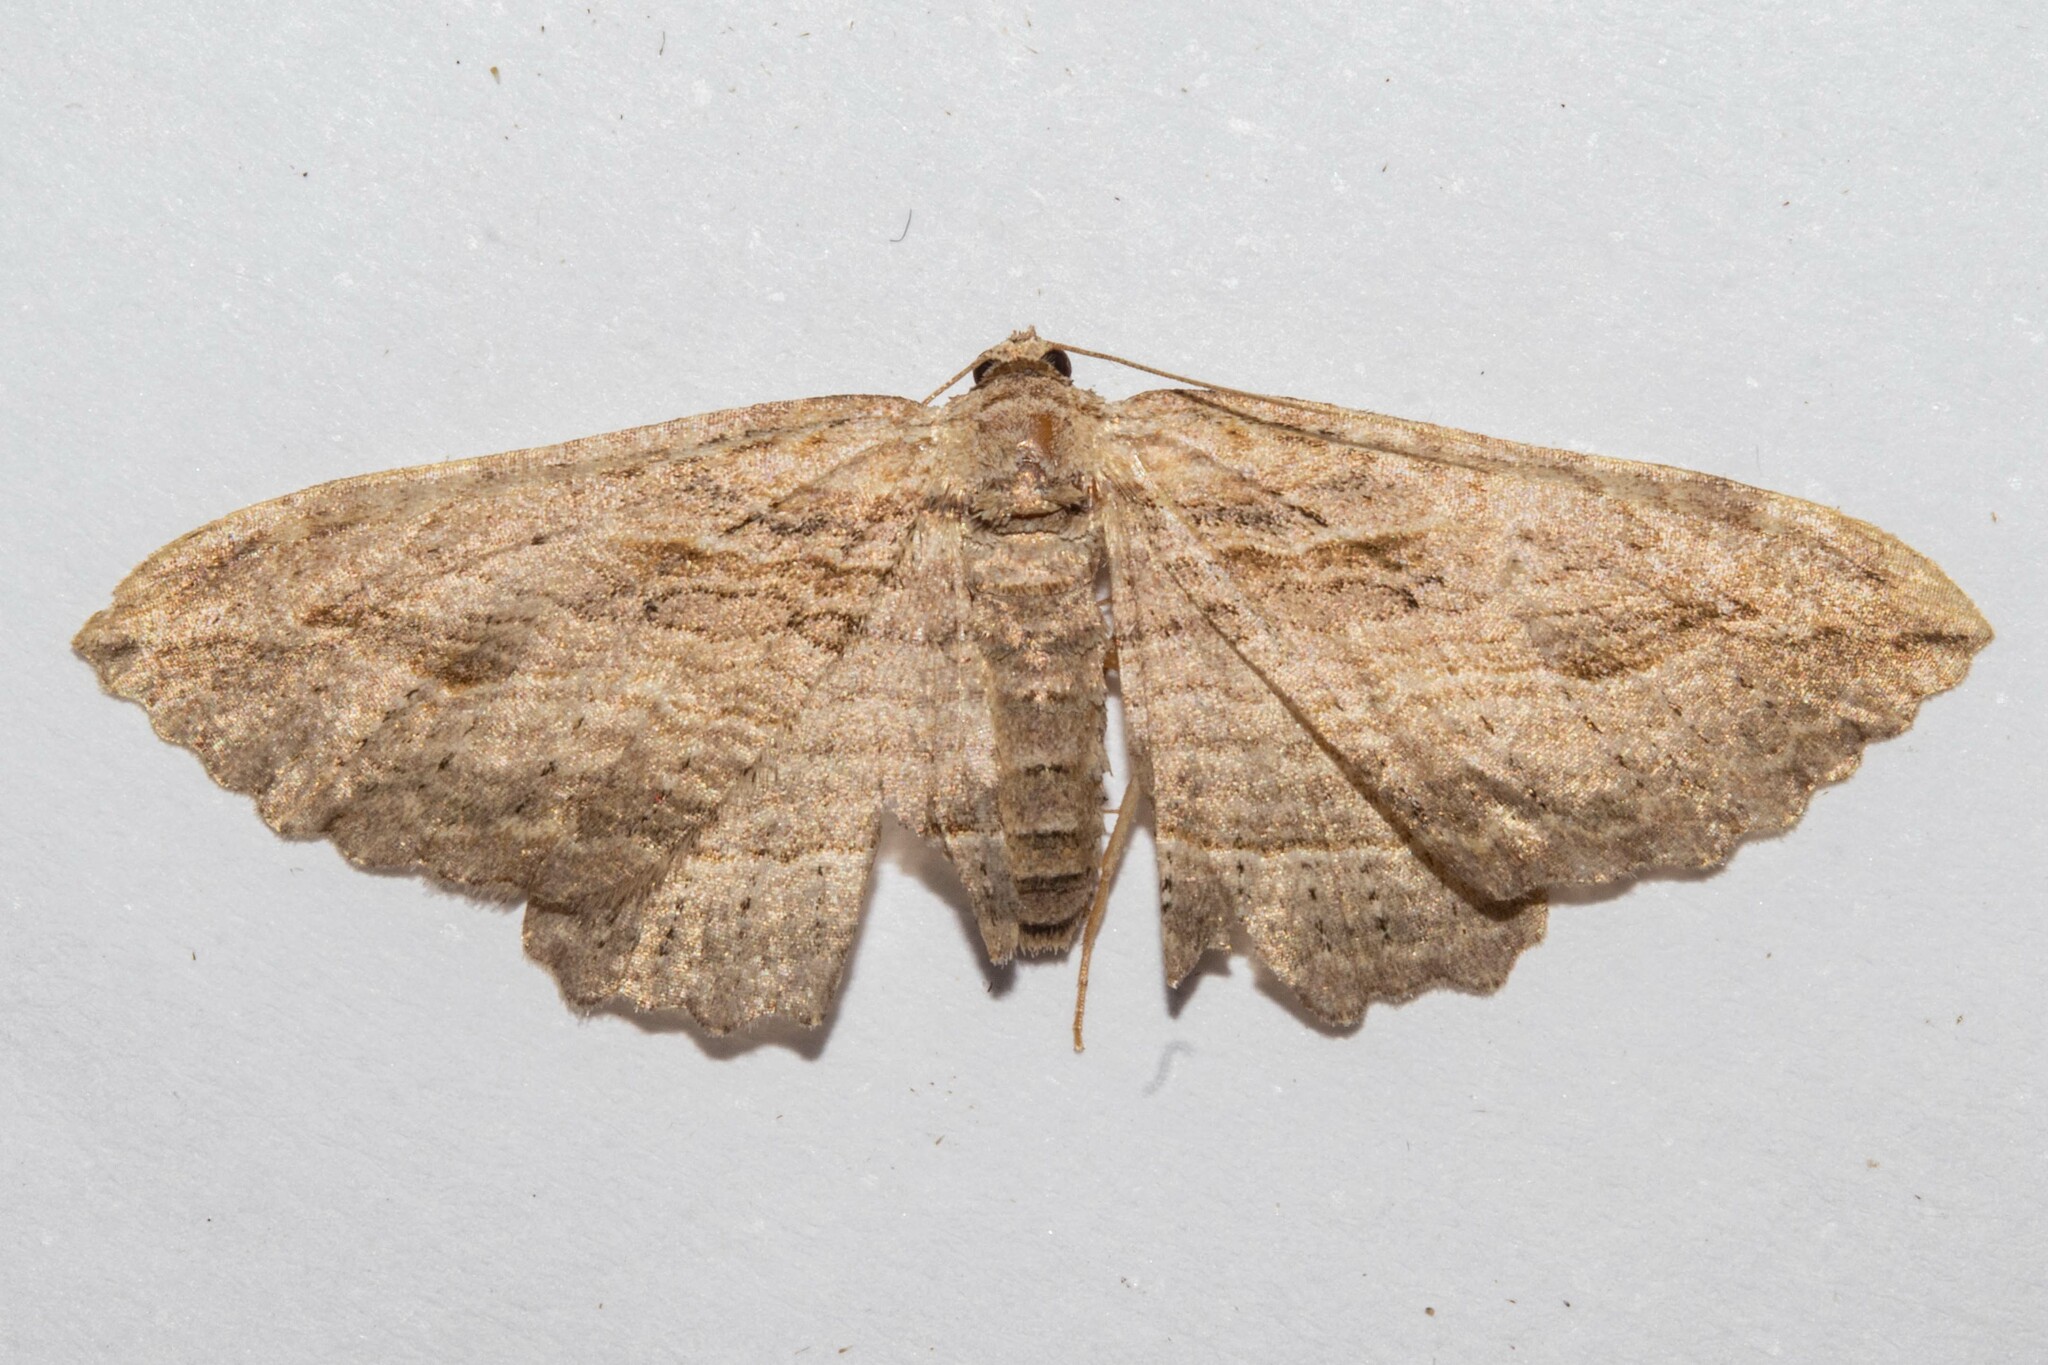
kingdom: Animalia
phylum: Arthropoda
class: Insecta
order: Lepidoptera
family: Geometridae
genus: Austrocidaria
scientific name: Austrocidaria gobiata
